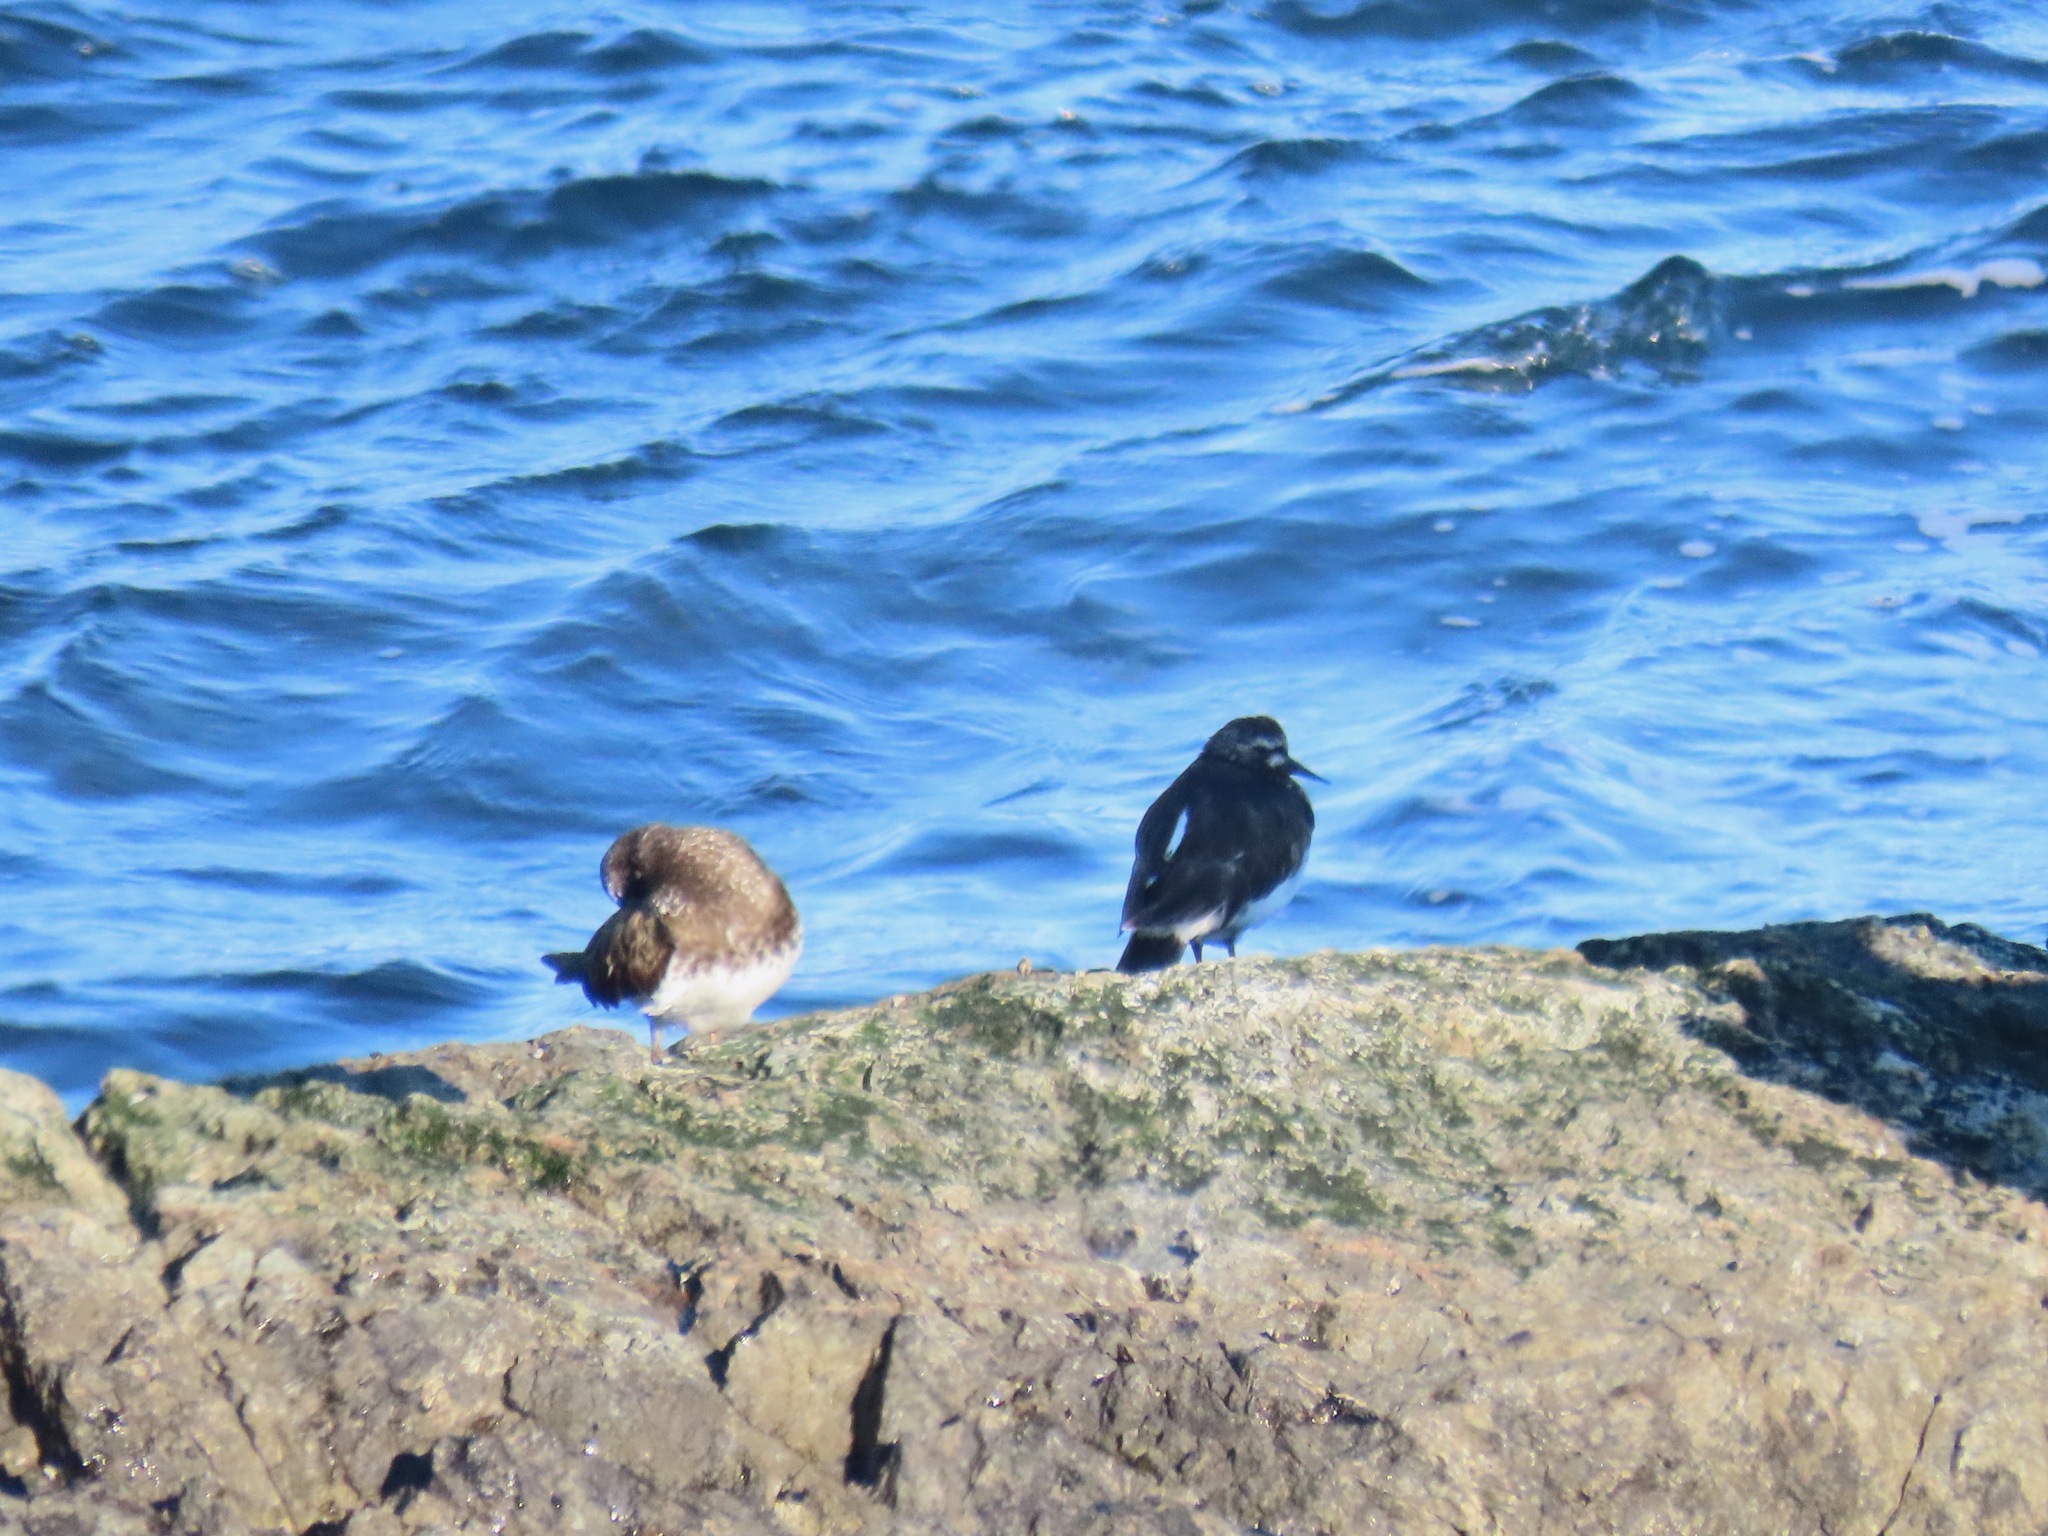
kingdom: Animalia
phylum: Chordata
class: Aves
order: Charadriiformes
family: Scolopacidae
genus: Arenaria
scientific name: Arenaria melanocephala
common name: Black turnstone
